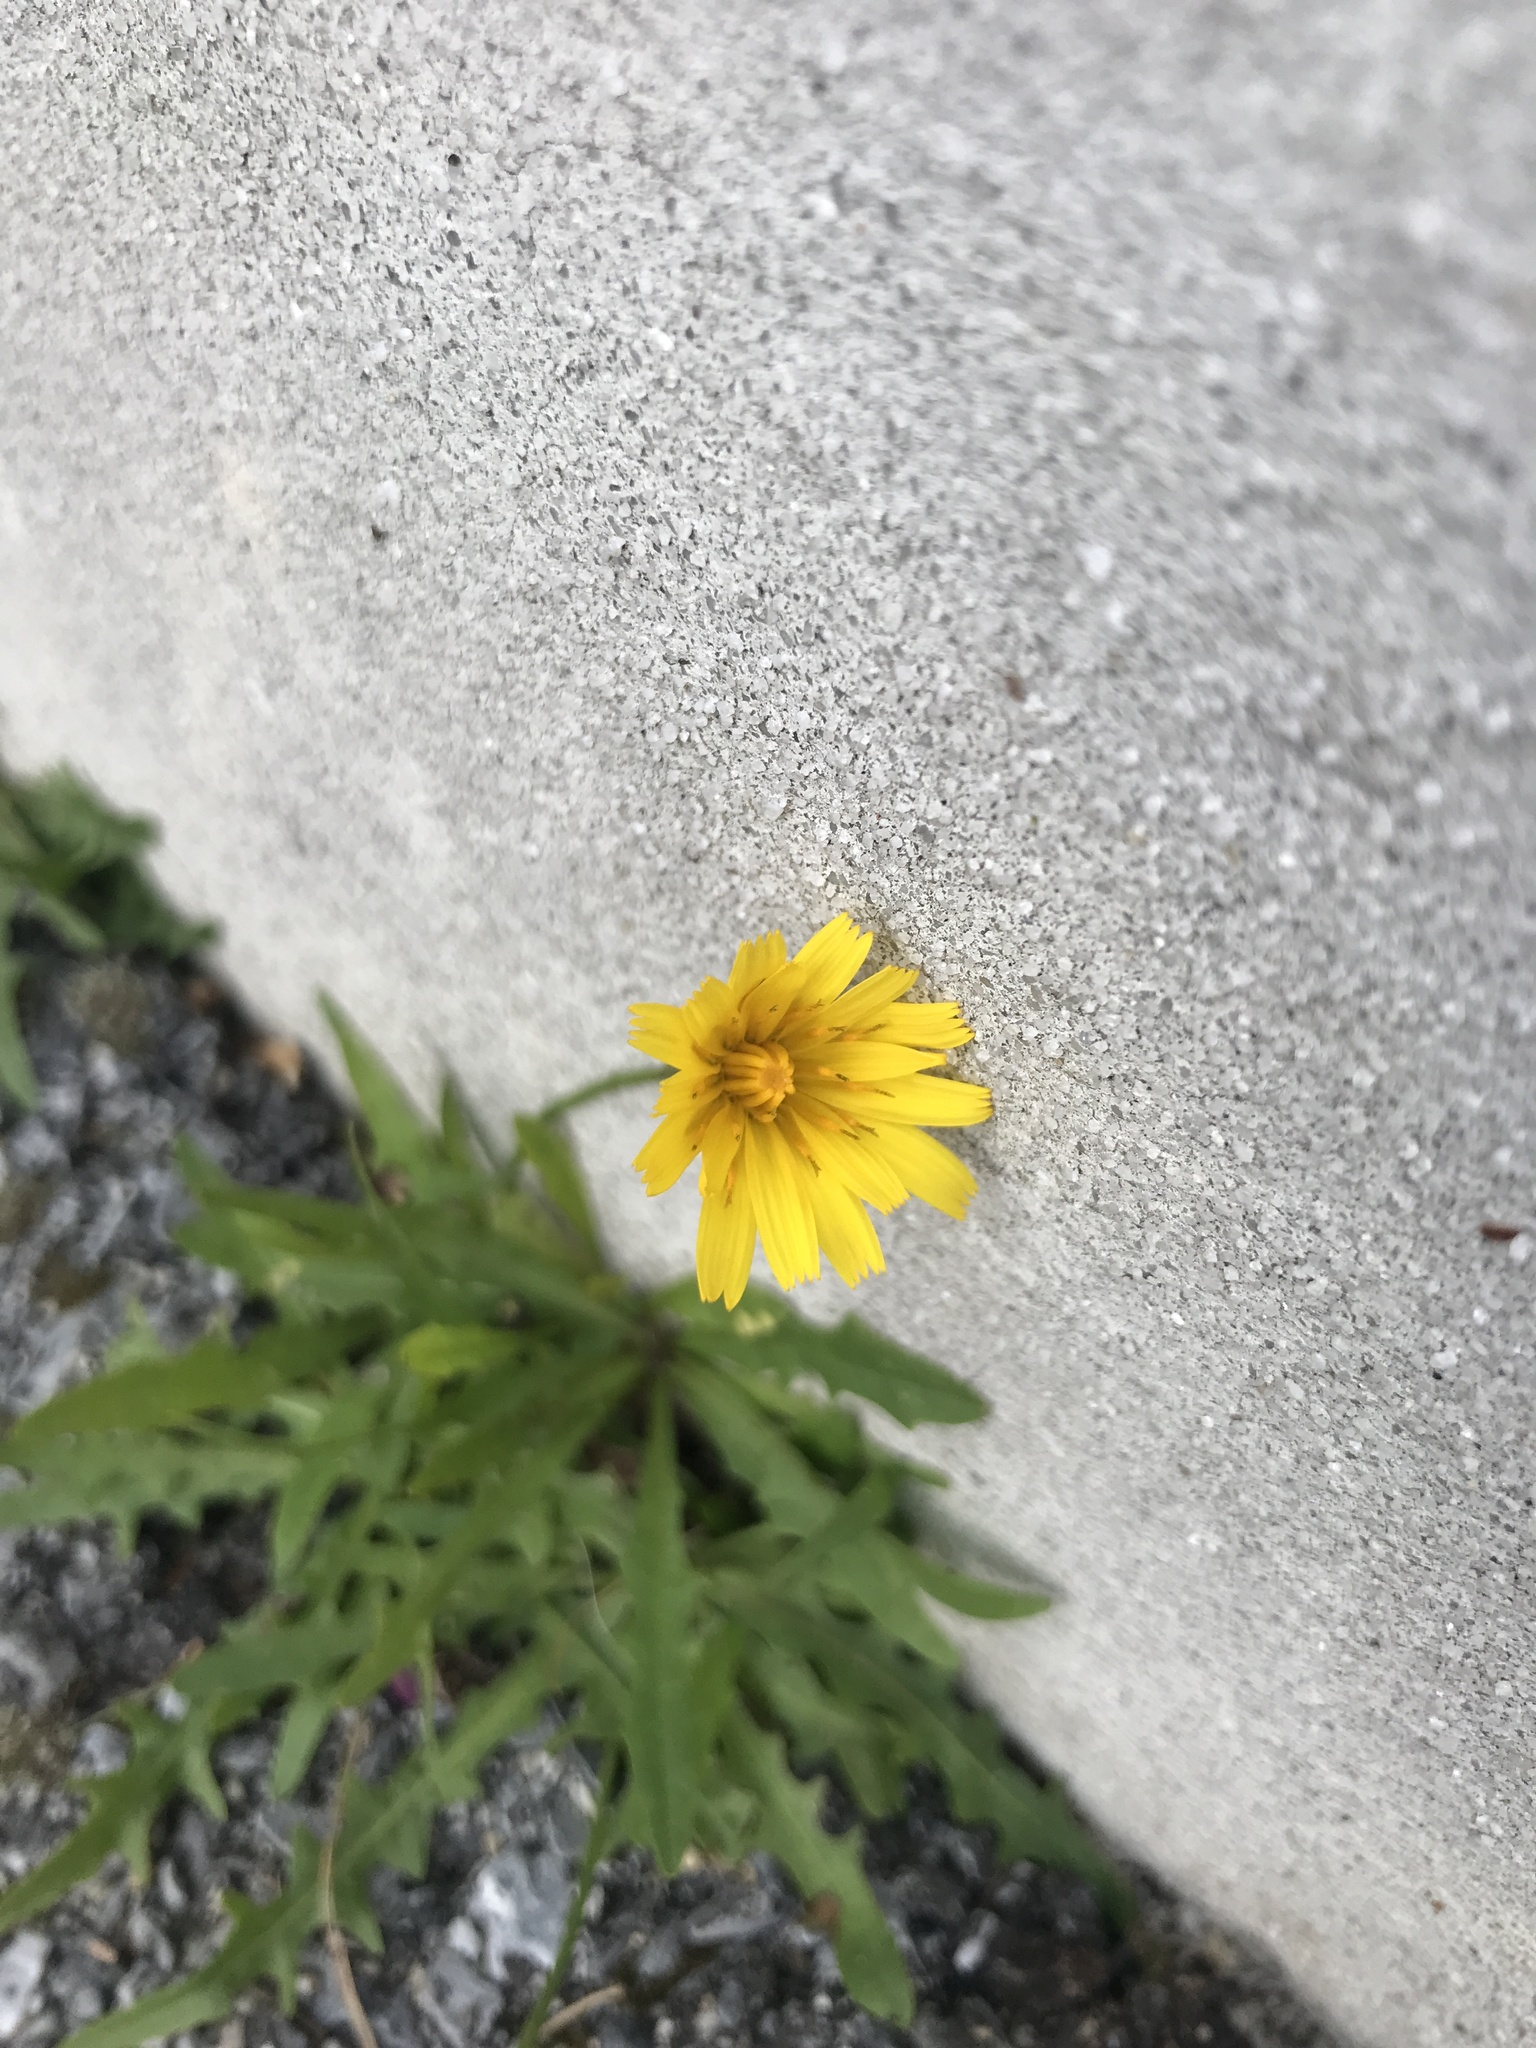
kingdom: Plantae
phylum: Tracheophyta
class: Magnoliopsida
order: Asterales
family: Asteraceae
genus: Scorzoneroides
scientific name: Scorzoneroides autumnalis
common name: Autumn hawkbit
